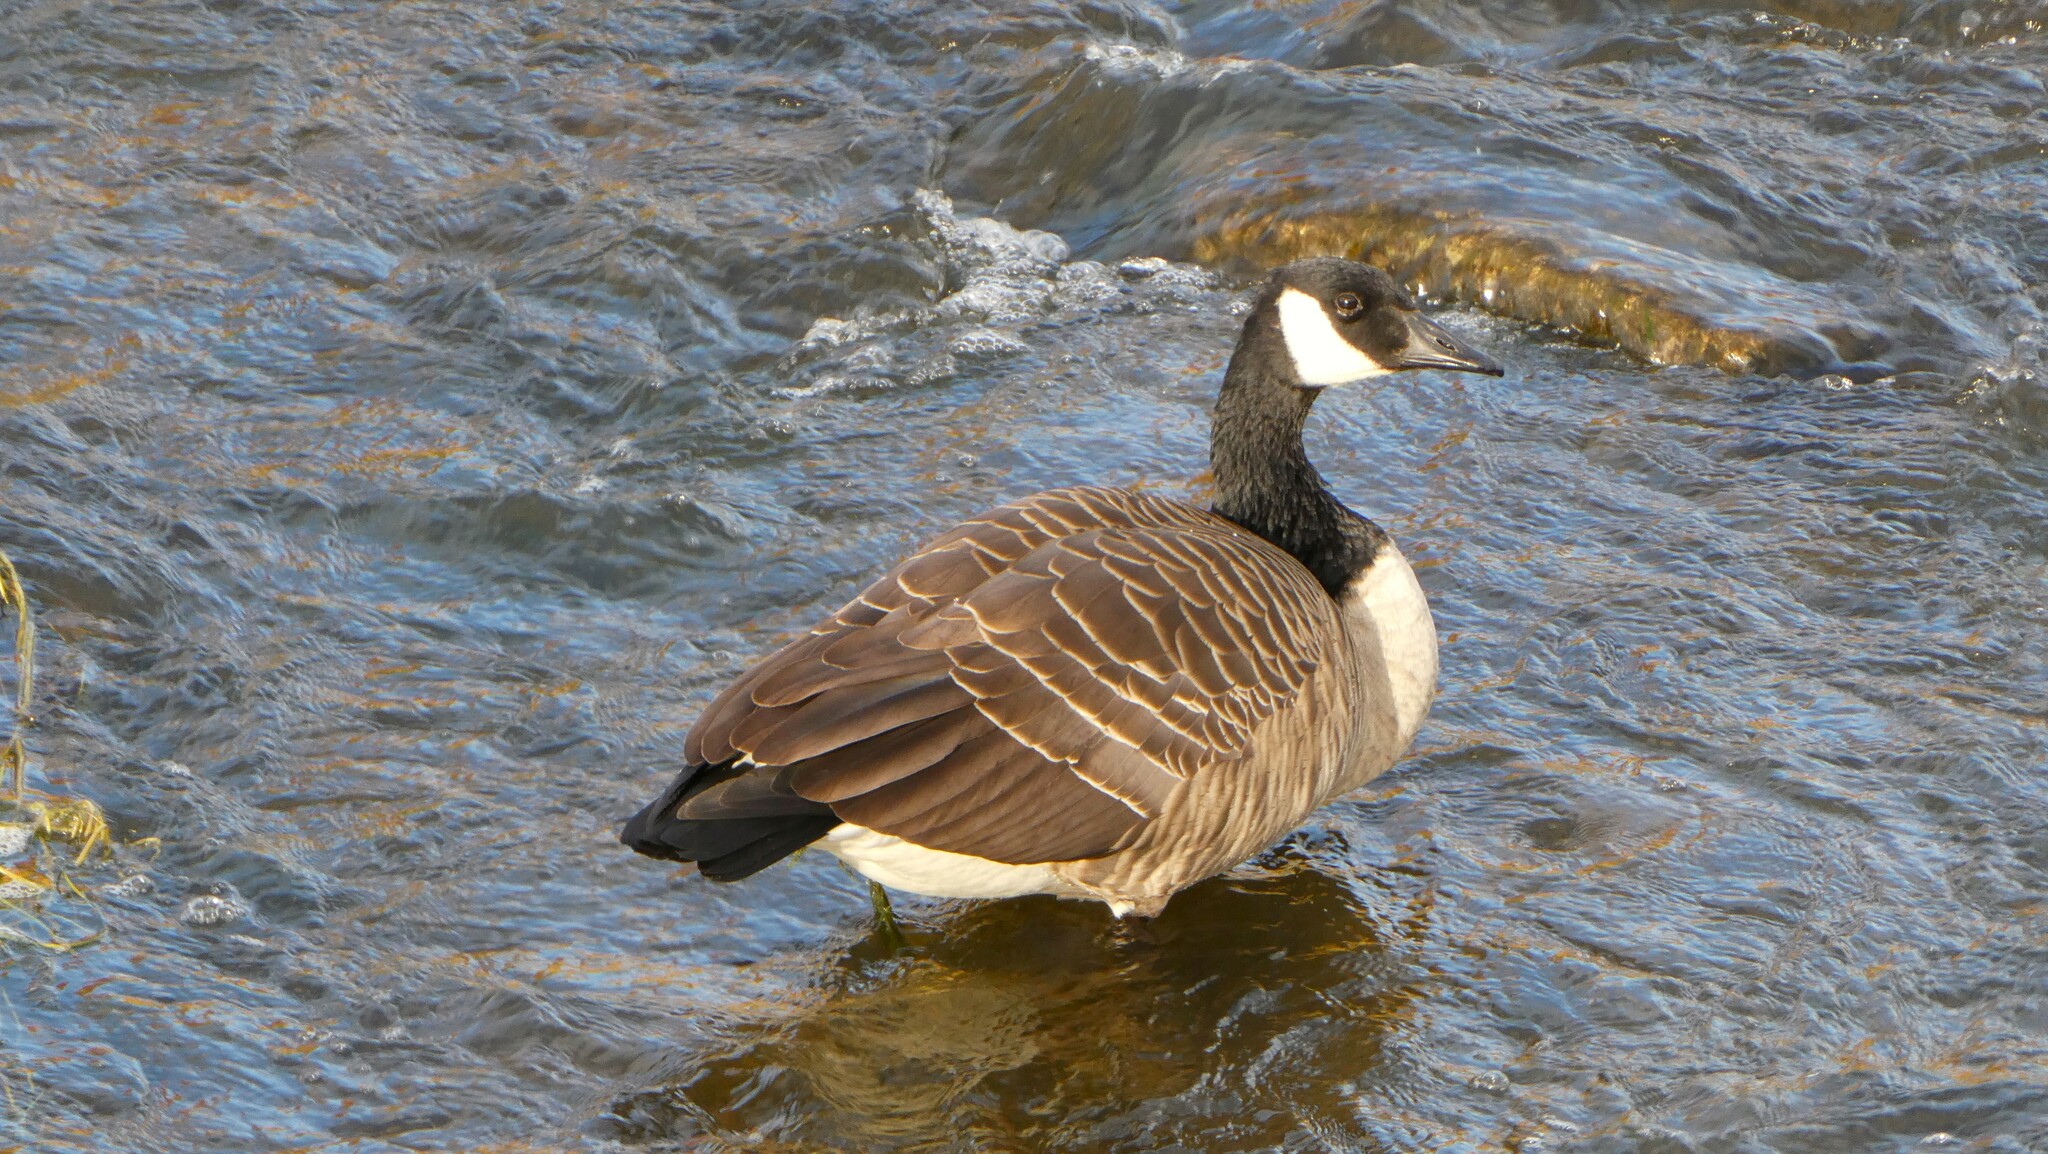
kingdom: Animalia
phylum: Chordata
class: Aves
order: Anseriformes
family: Anatidae
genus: Branta
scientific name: Branta canadensis
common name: Canada goose
